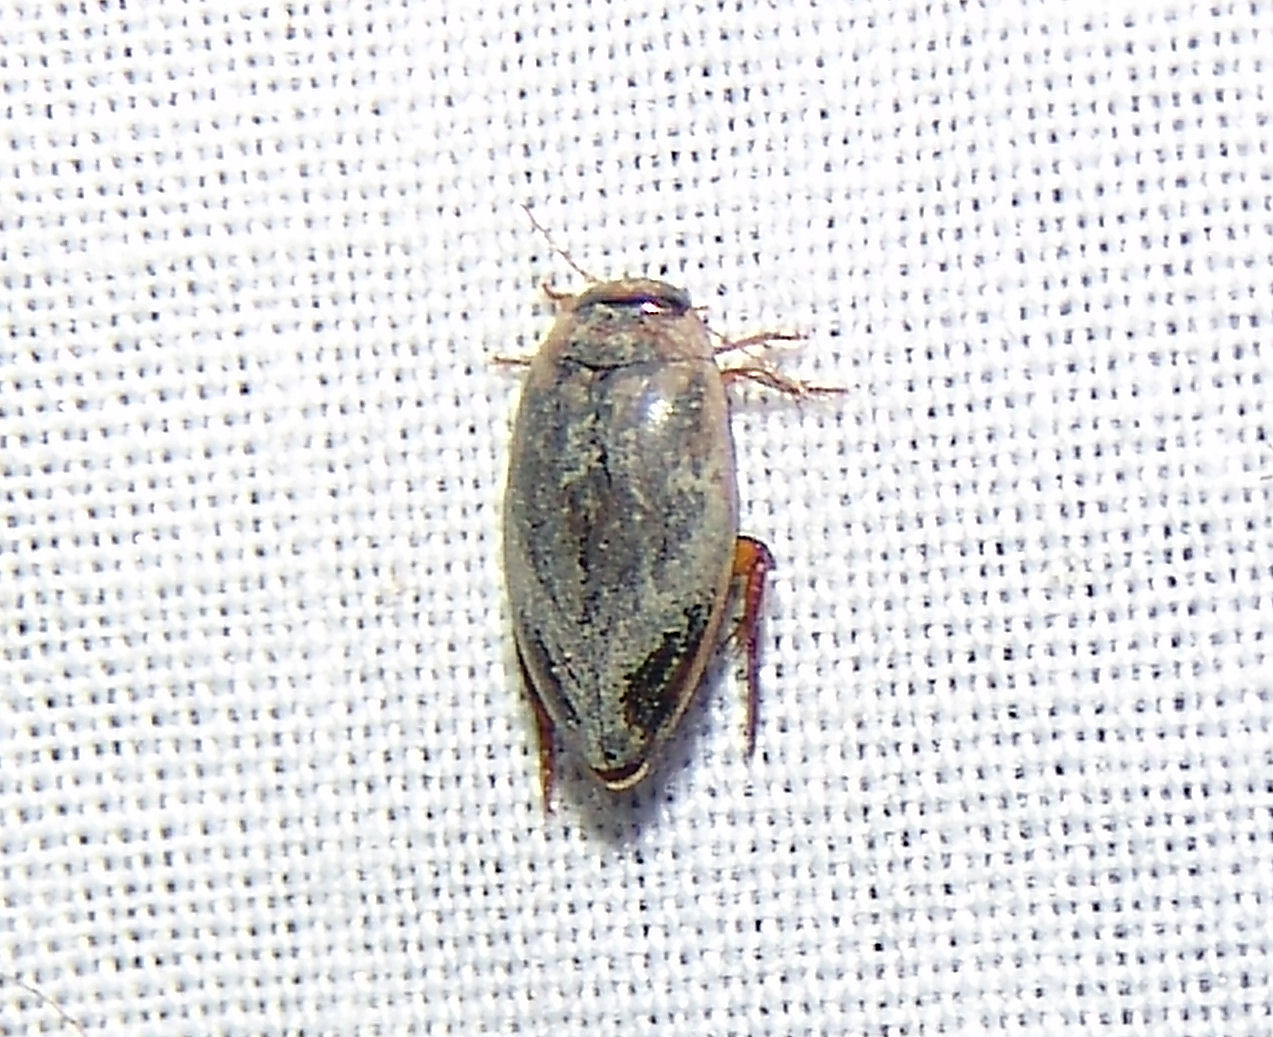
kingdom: Animalia
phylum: Arthropoda
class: Insecta
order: Coleoptera
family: Dytiscidae
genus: Coptotomus
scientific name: Coptotomus
